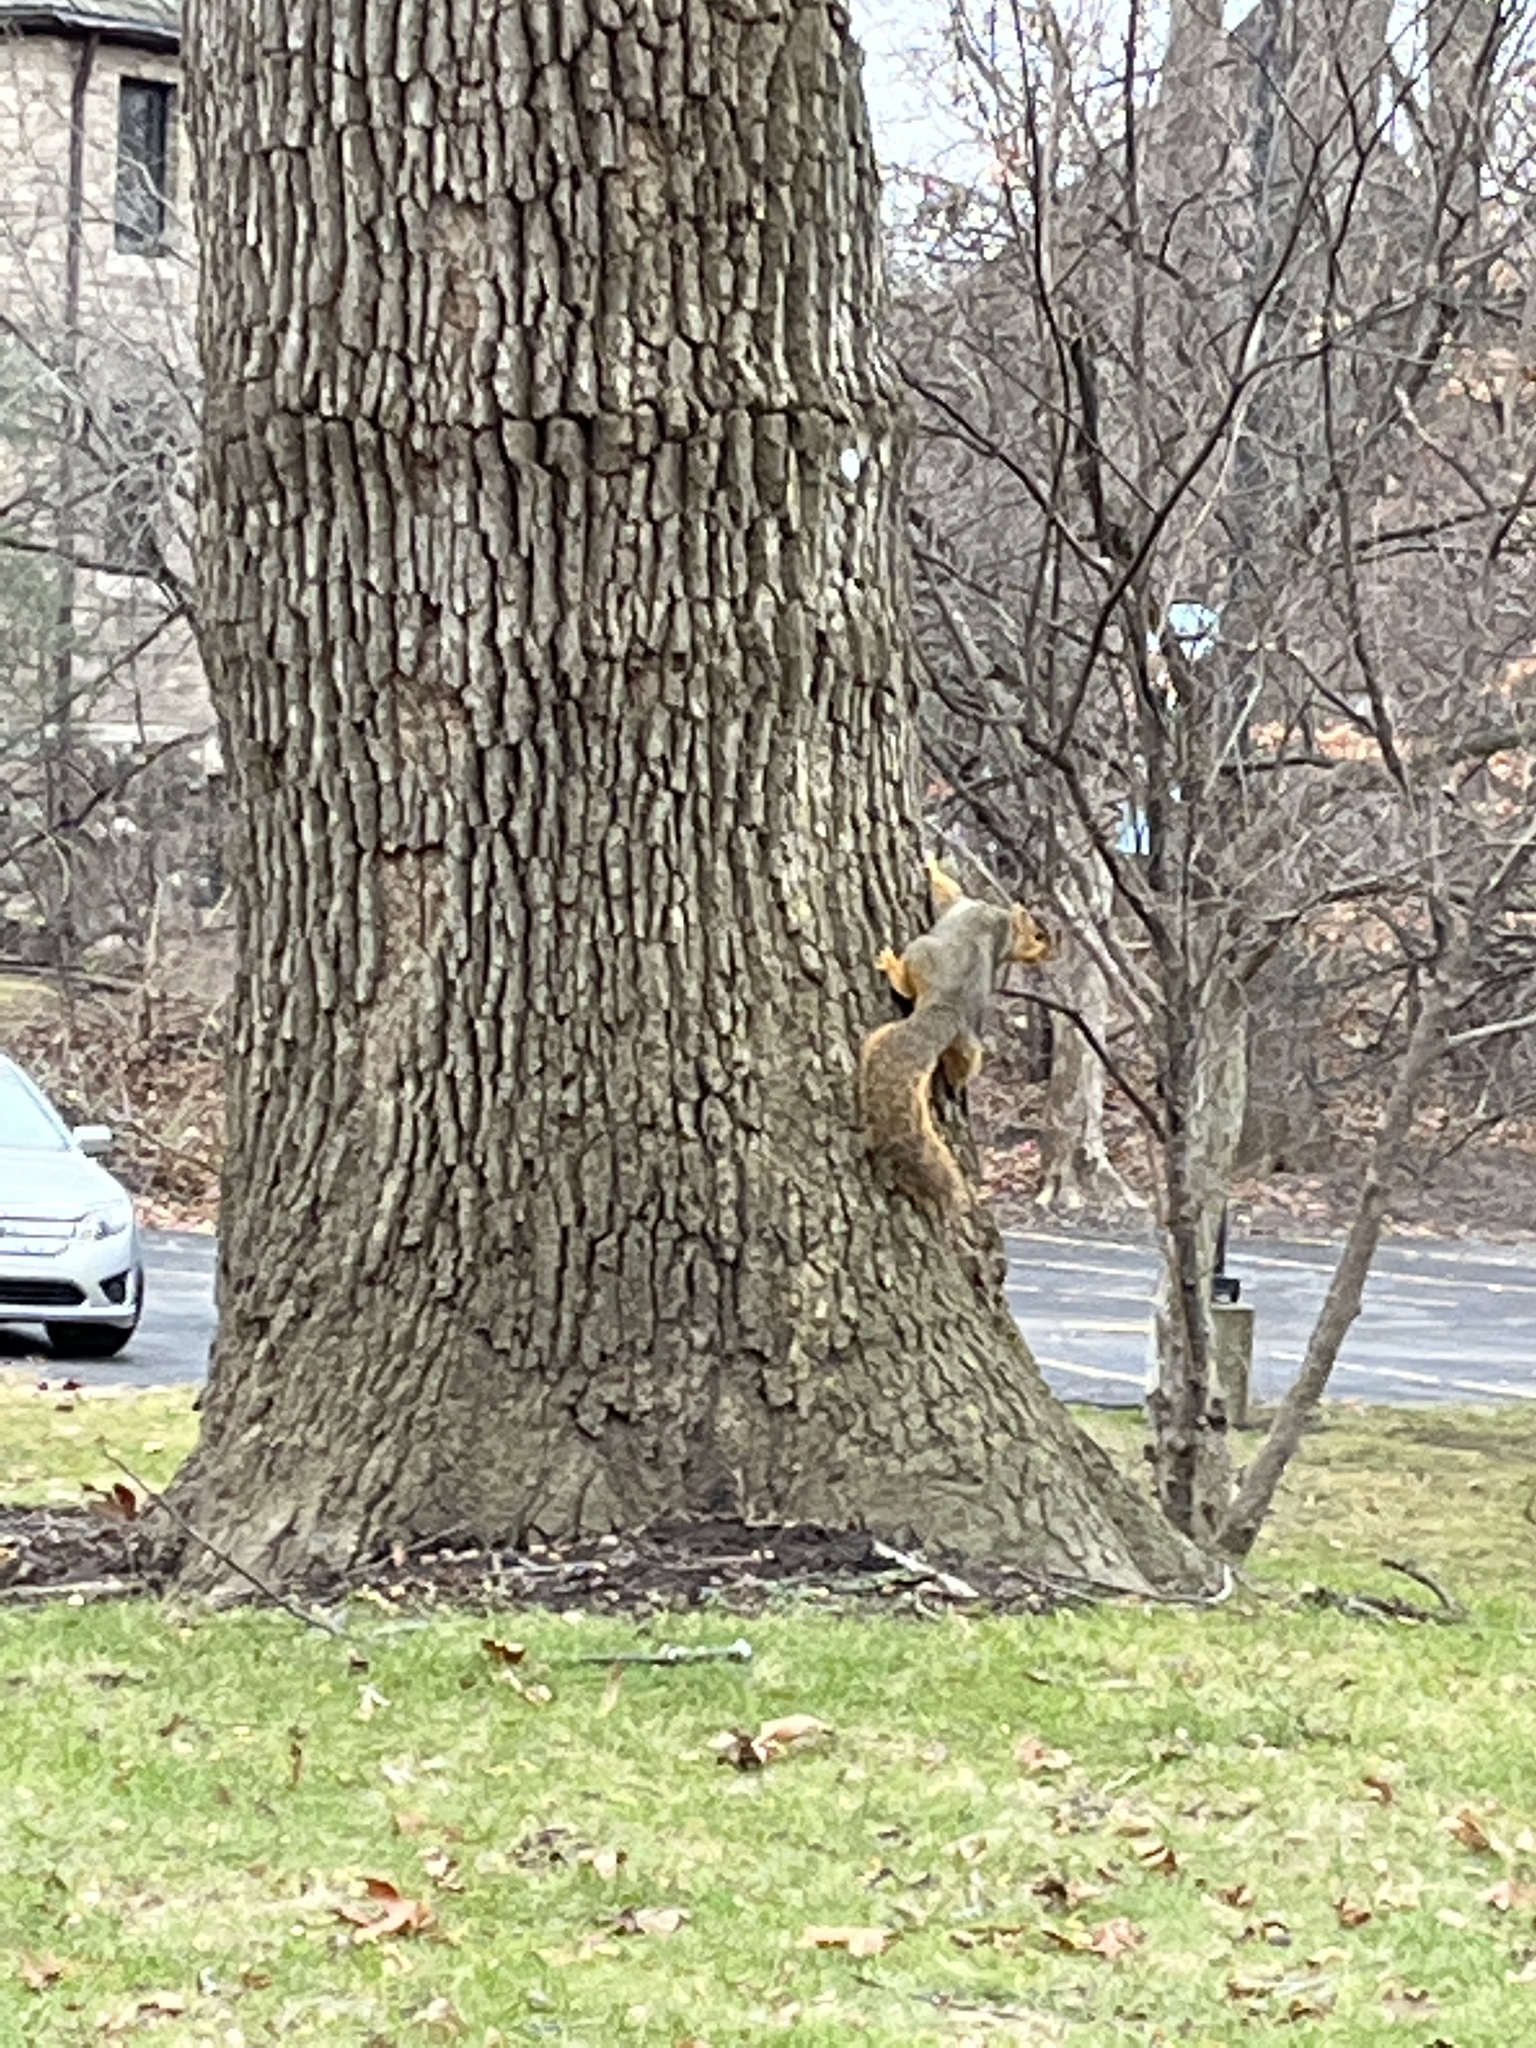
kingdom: Animalia
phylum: Chordata
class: Mammalia
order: Rodentia
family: Sciuridae
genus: Sciurus
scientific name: Sciurus niger
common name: Fox squirrel
